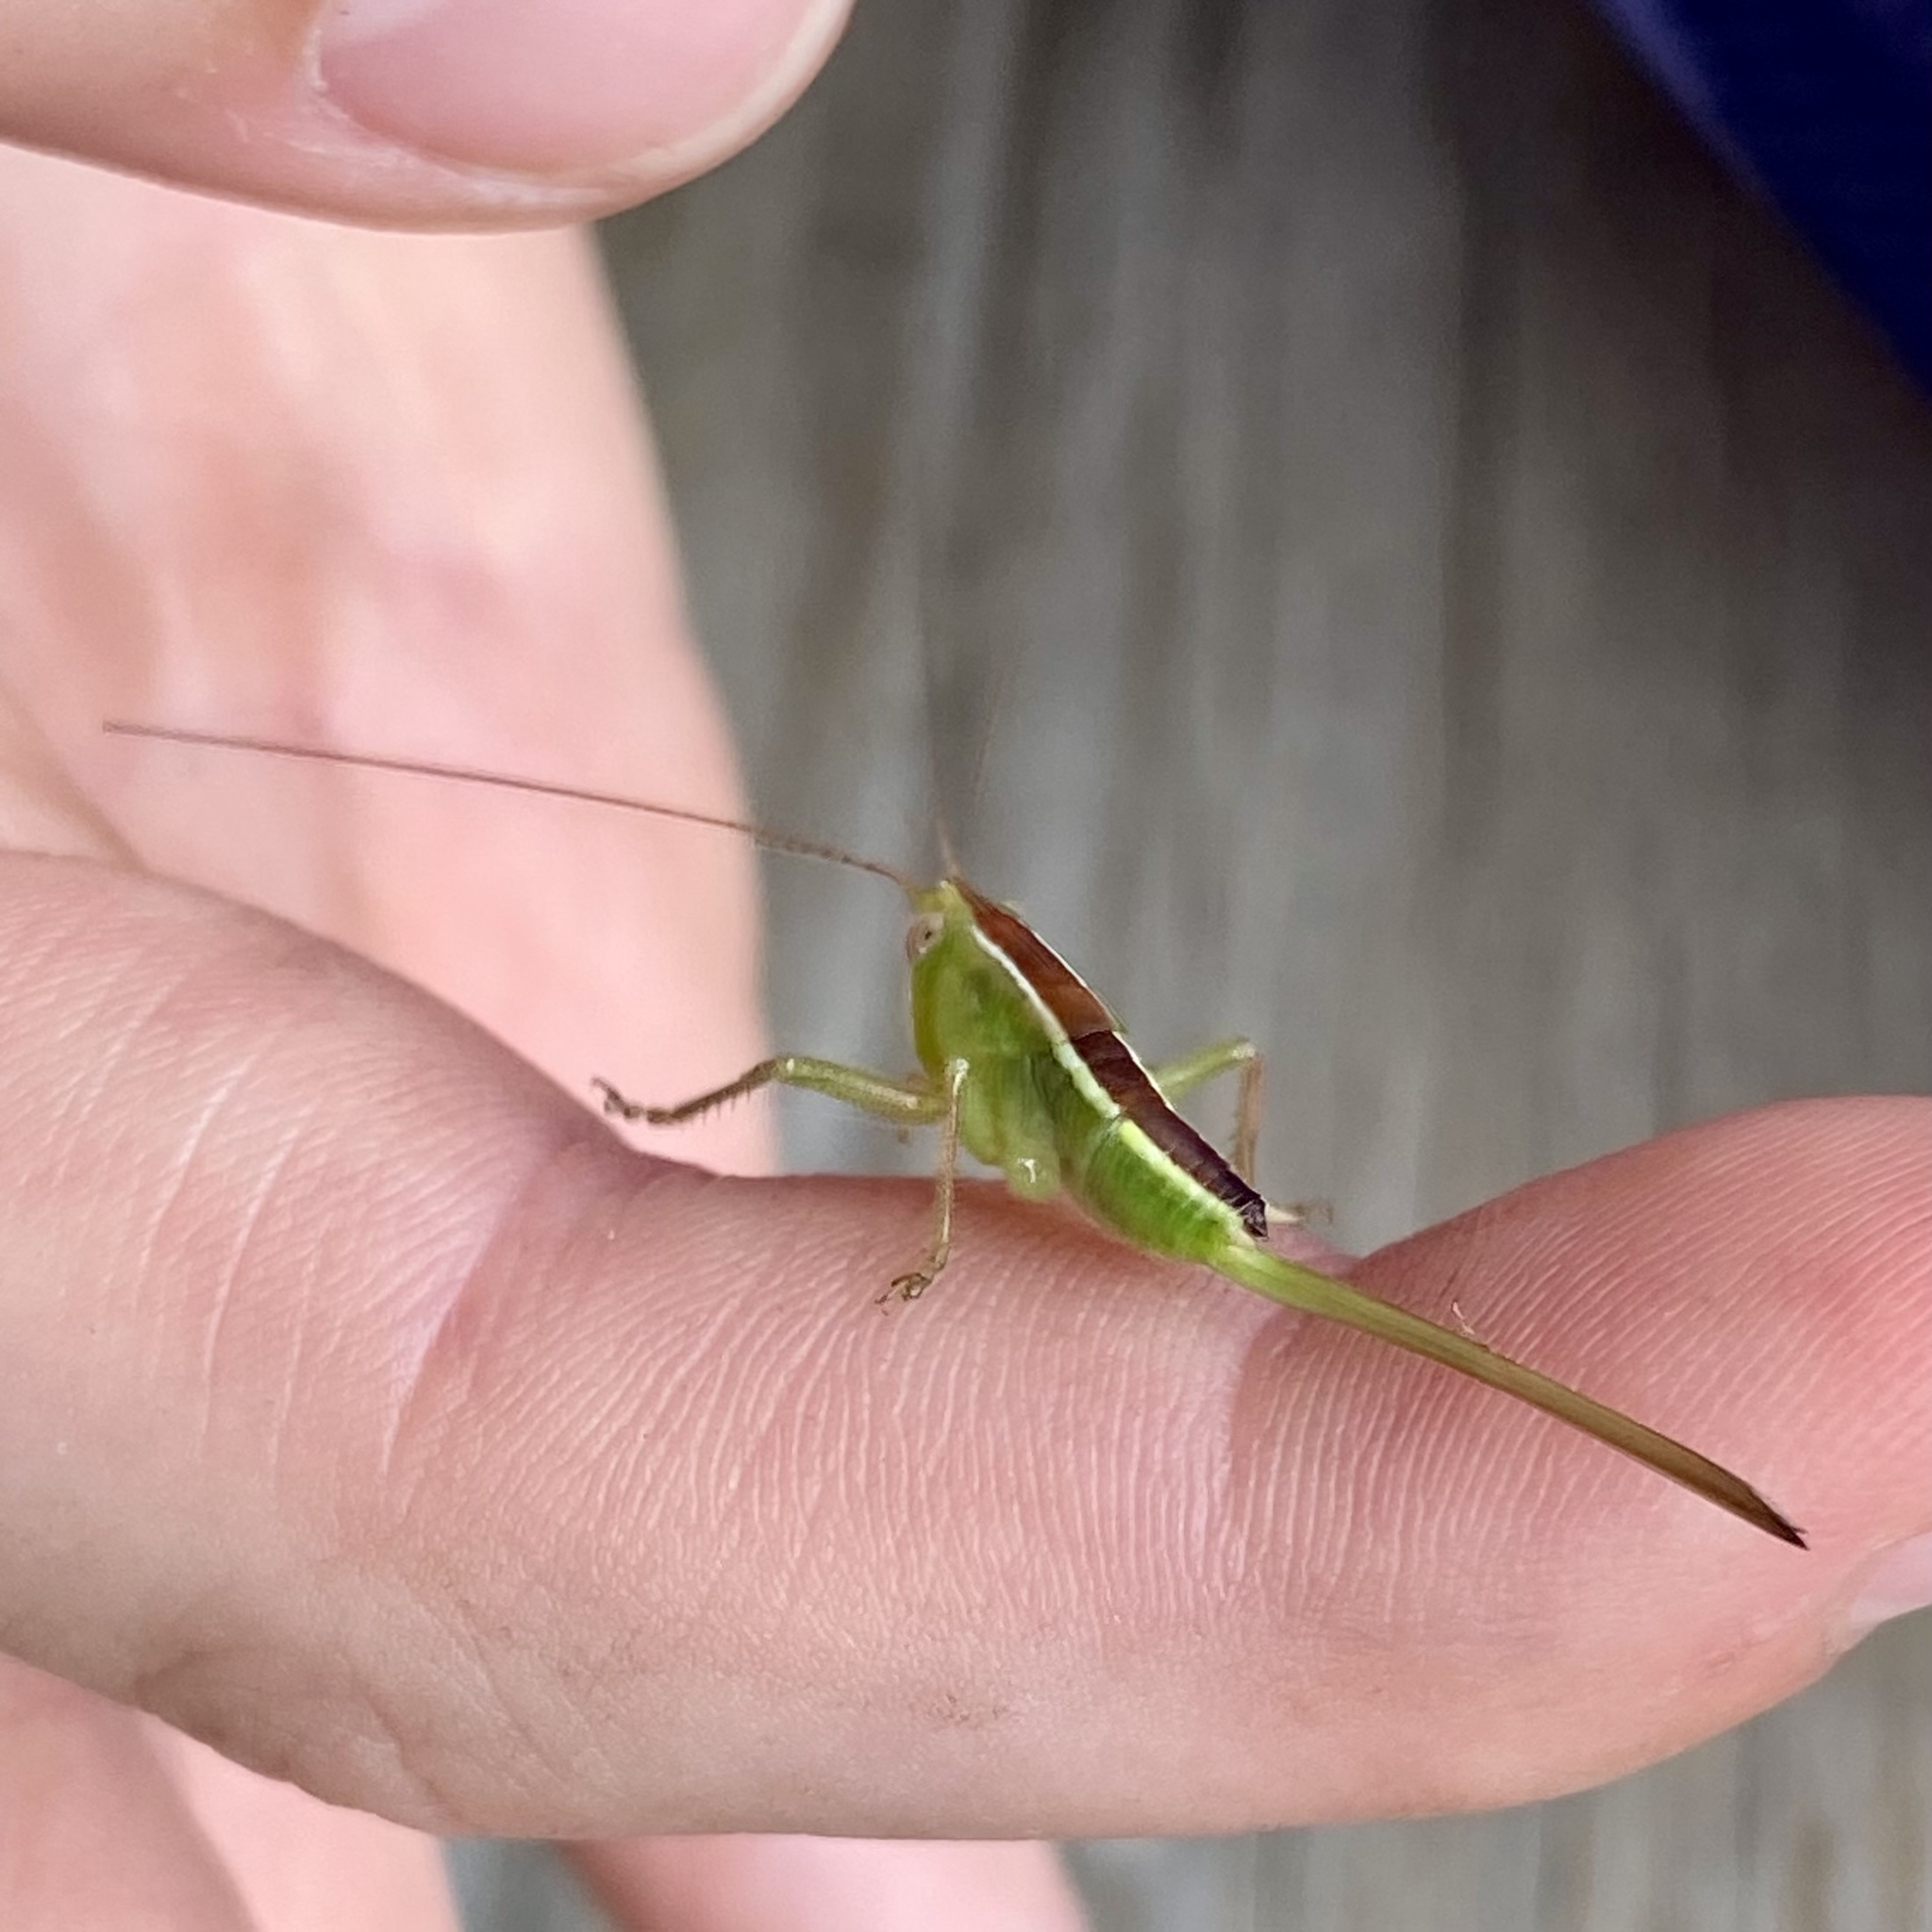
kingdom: Animalia
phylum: Arthropoda
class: Insecta
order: Orthoptera
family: Tettigoniidae
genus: Odontoxiphidium
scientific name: Odontoxiphidium apterum
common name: Wingless meadow katydid
